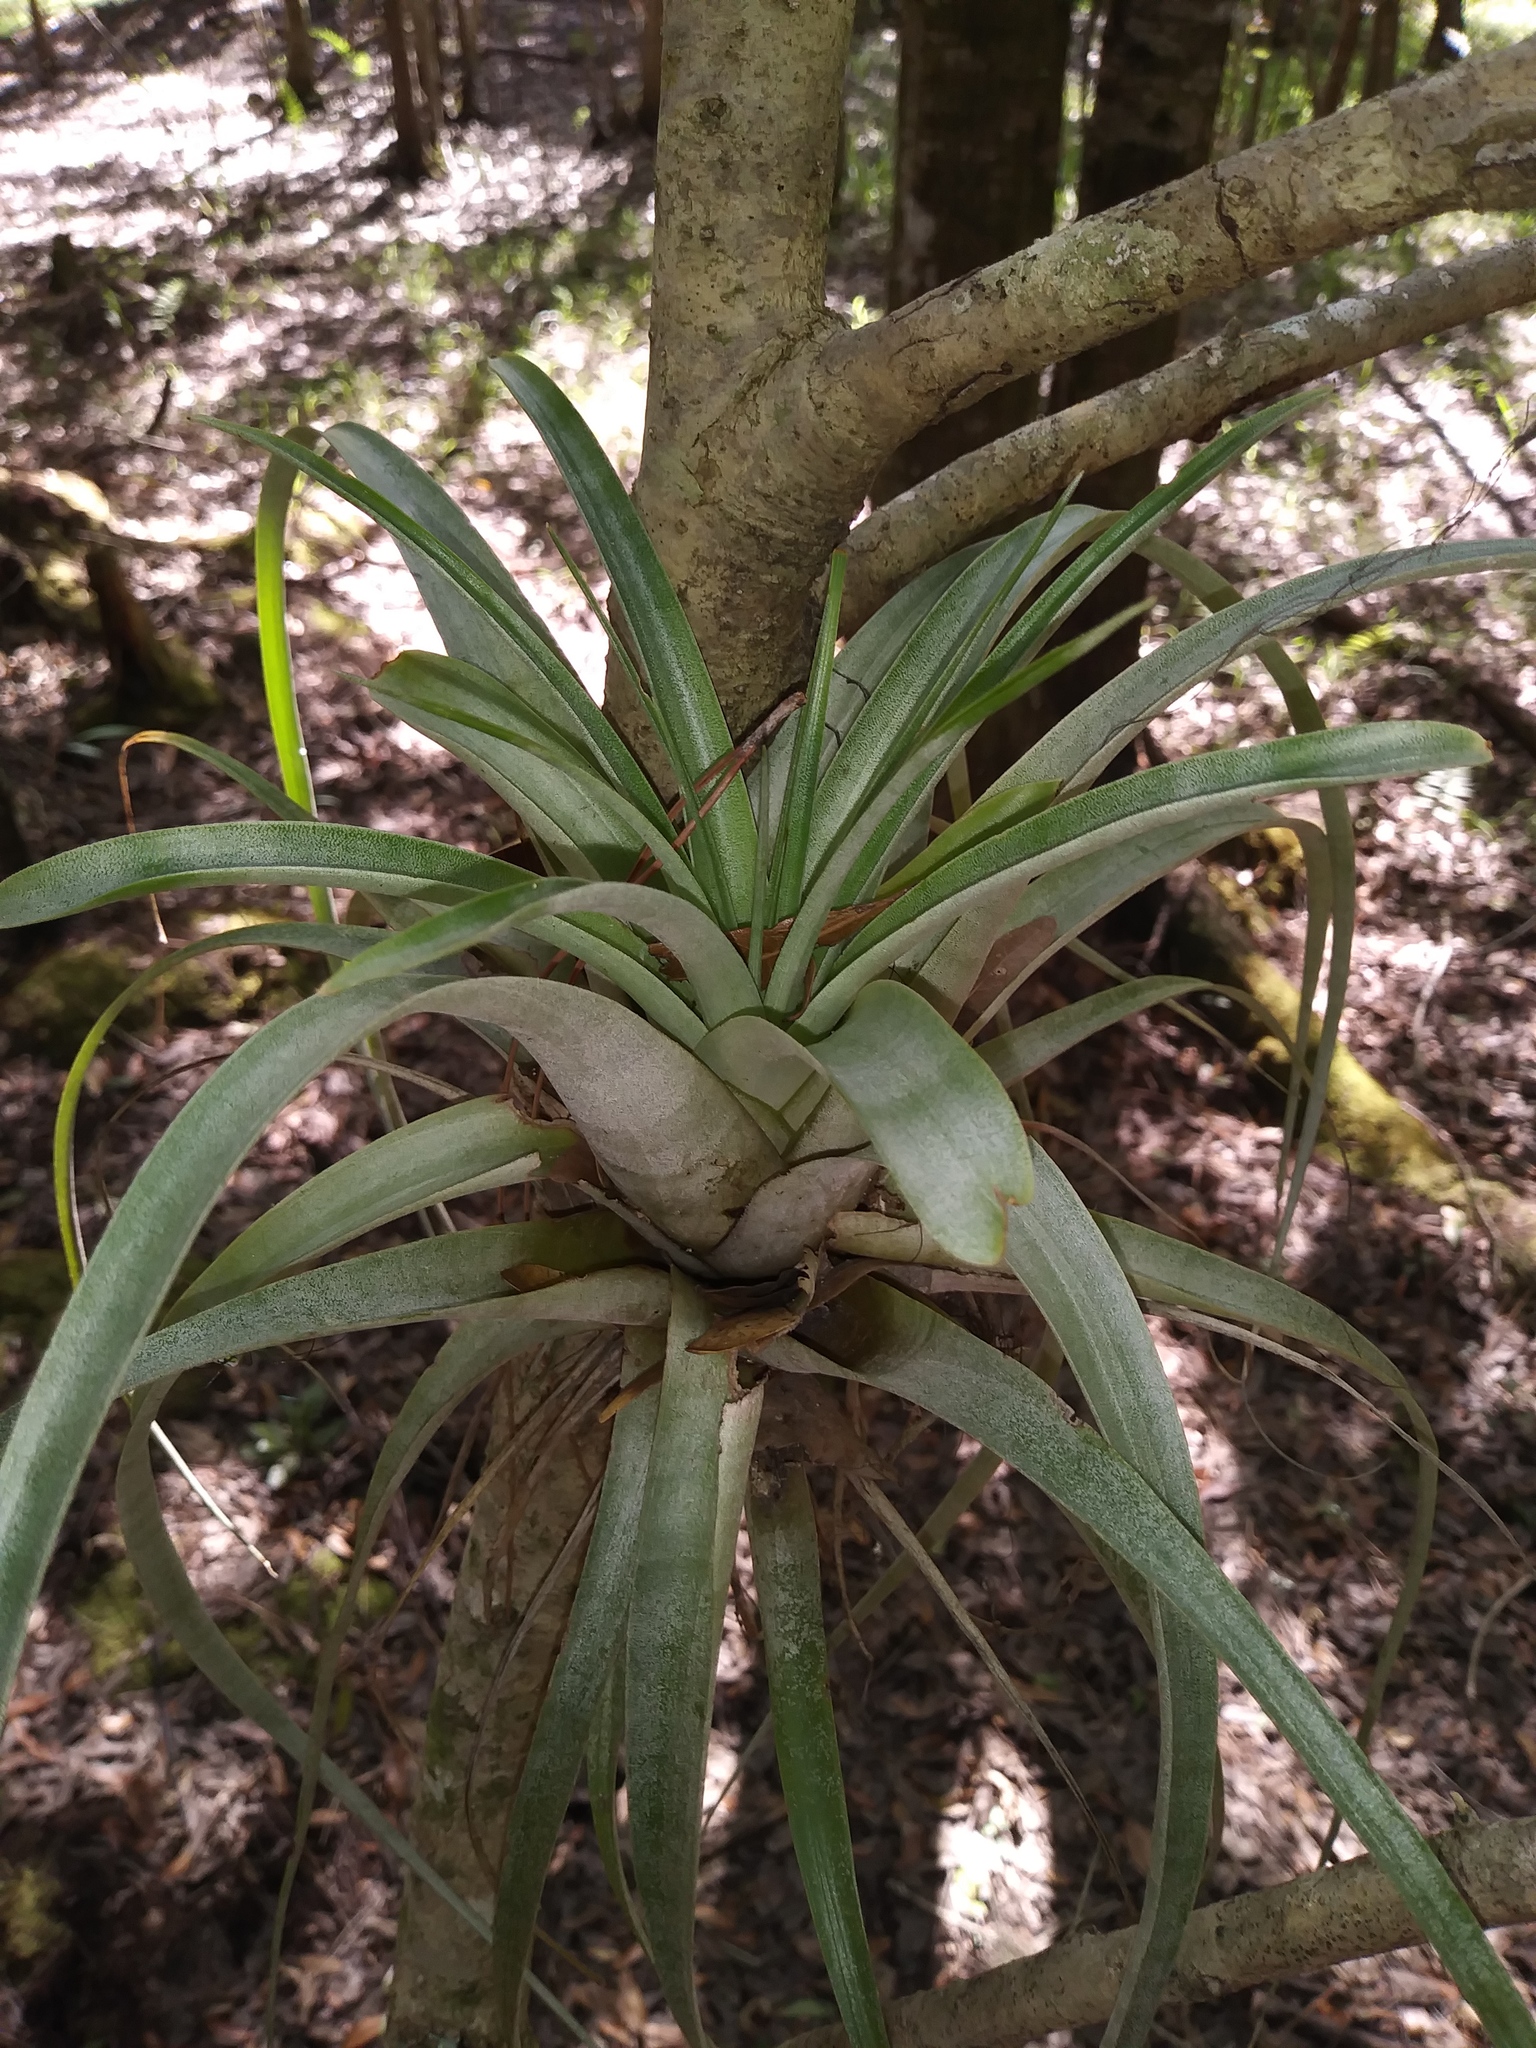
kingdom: Plantae
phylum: Tracheophyta
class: Liliopsida
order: Poales
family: Bromeliaceae
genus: Tillandsia
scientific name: Tillandsia utriculata
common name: Wild pine
